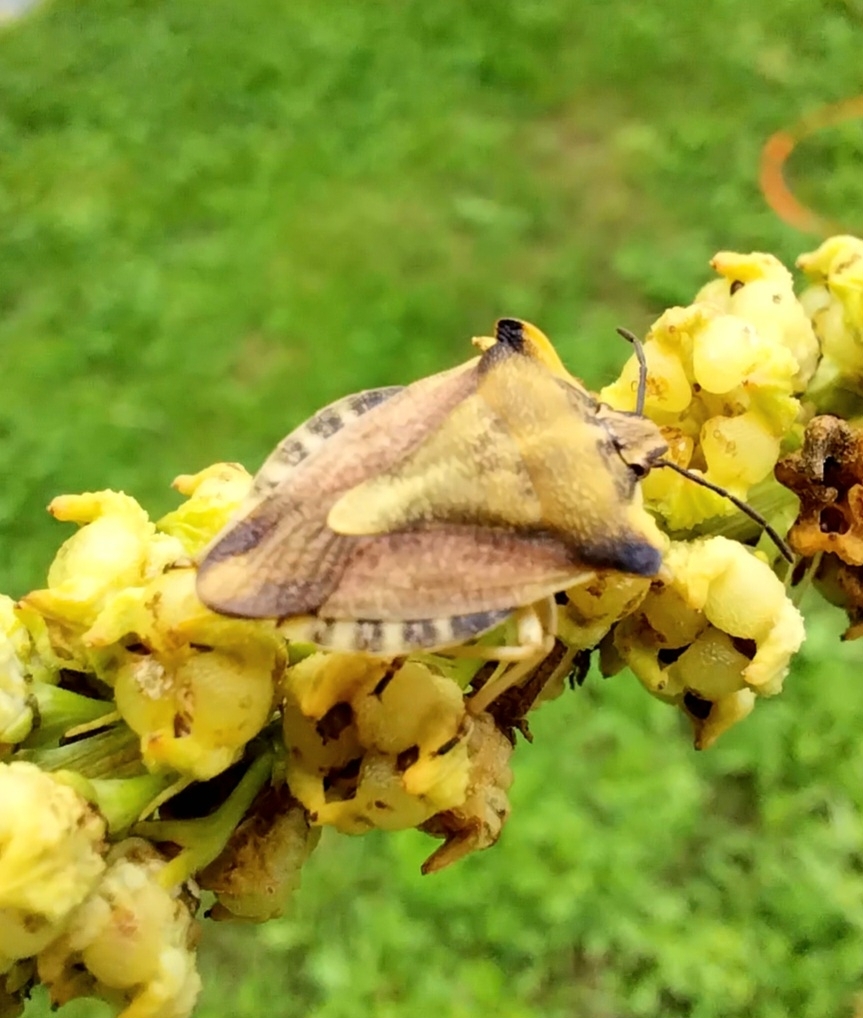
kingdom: Animalia
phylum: Arthropoda
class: Insecta
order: Hemiptera
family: Pentatomidae
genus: Carpocoris
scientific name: Carpocoris fuscispinus
